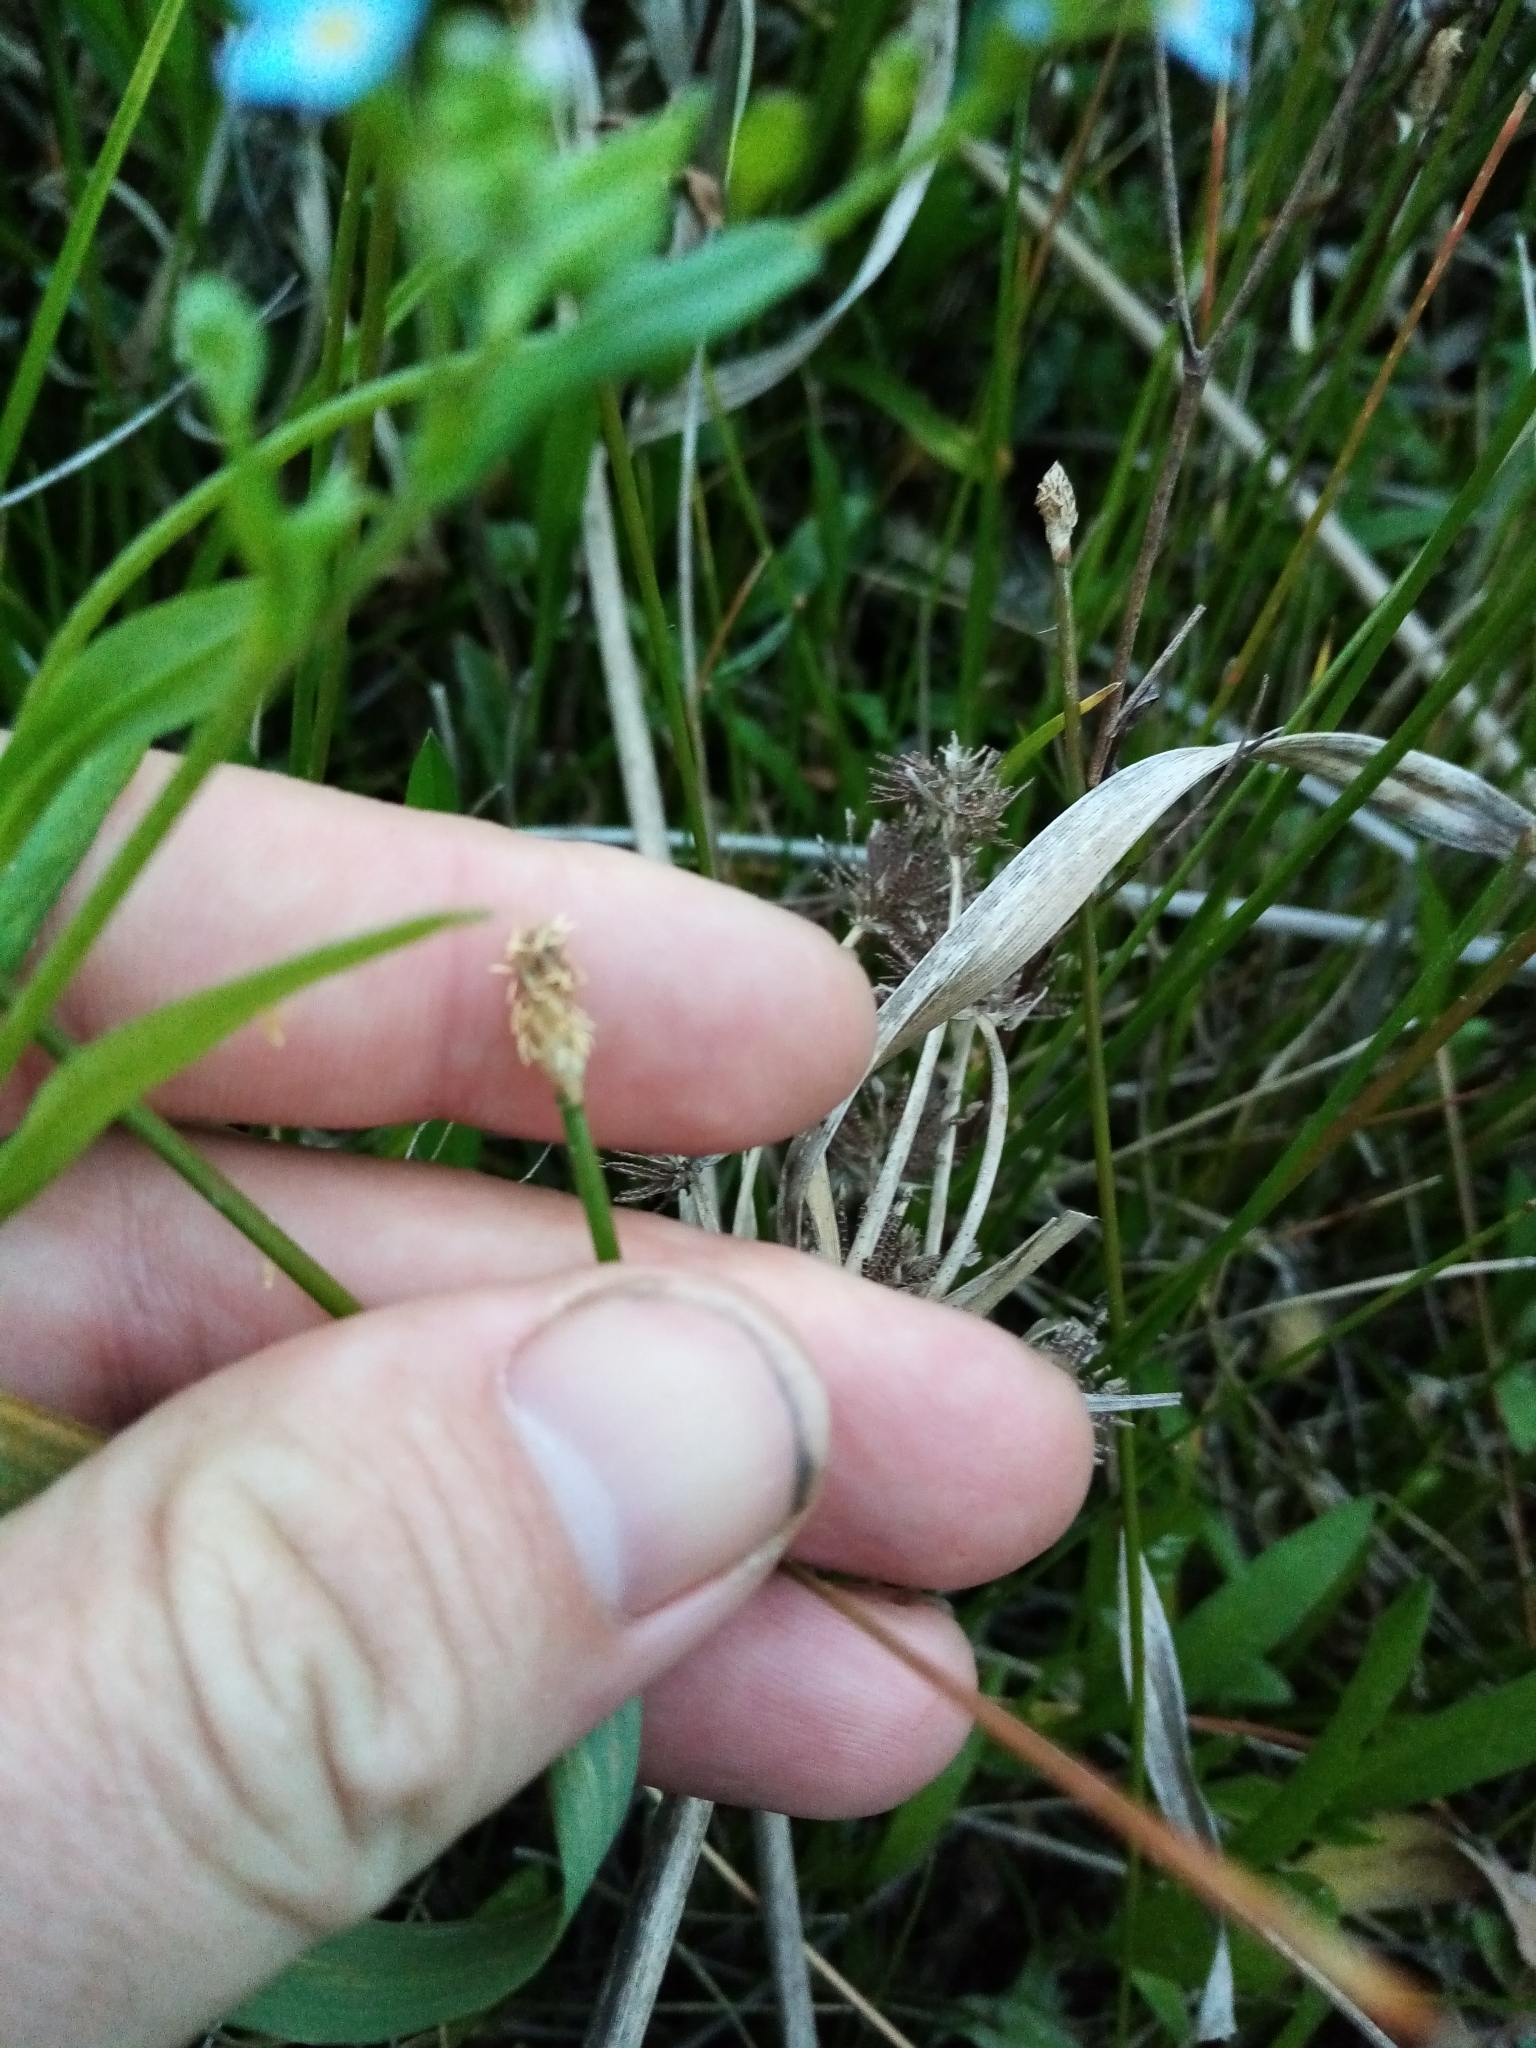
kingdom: Plantae
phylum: Tracheophyta
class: Liliopsida
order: Poales
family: Cyperaceae
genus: Eleocharis
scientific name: Eleocharis acuta
